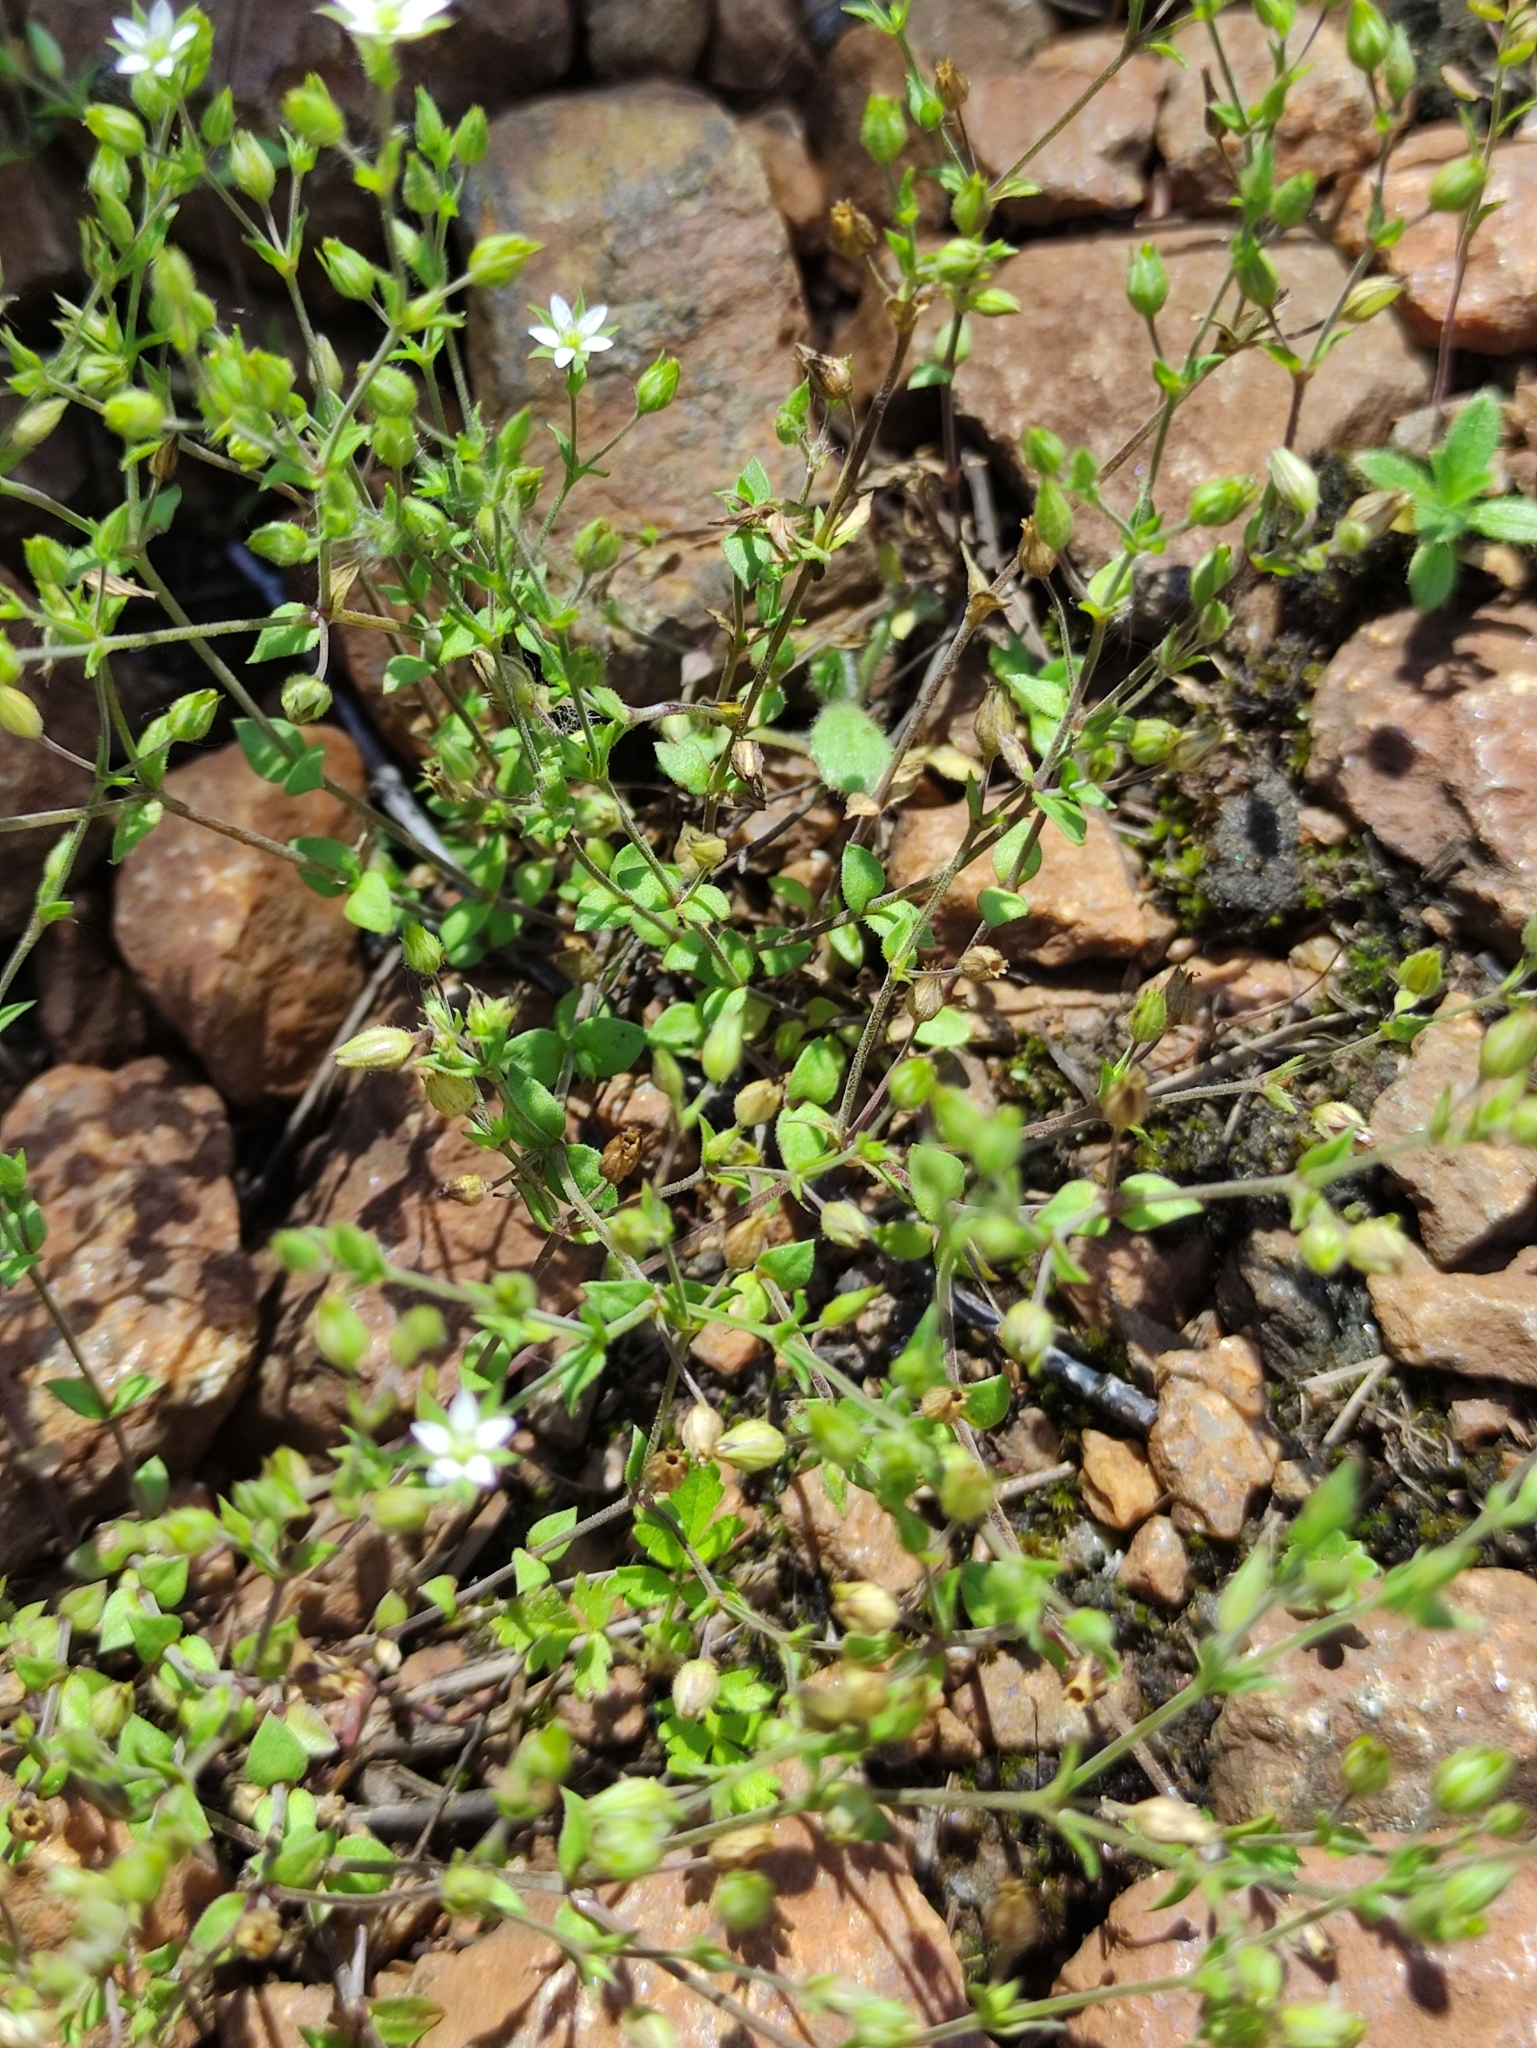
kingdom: Plantae
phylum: Tracheophyta
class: Magnoliopsida
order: Caryophyllales
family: Caryophyllaceae
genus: Arenaria
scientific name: Arenaria serpyllifolia
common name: Thyme-leaved sandwort
